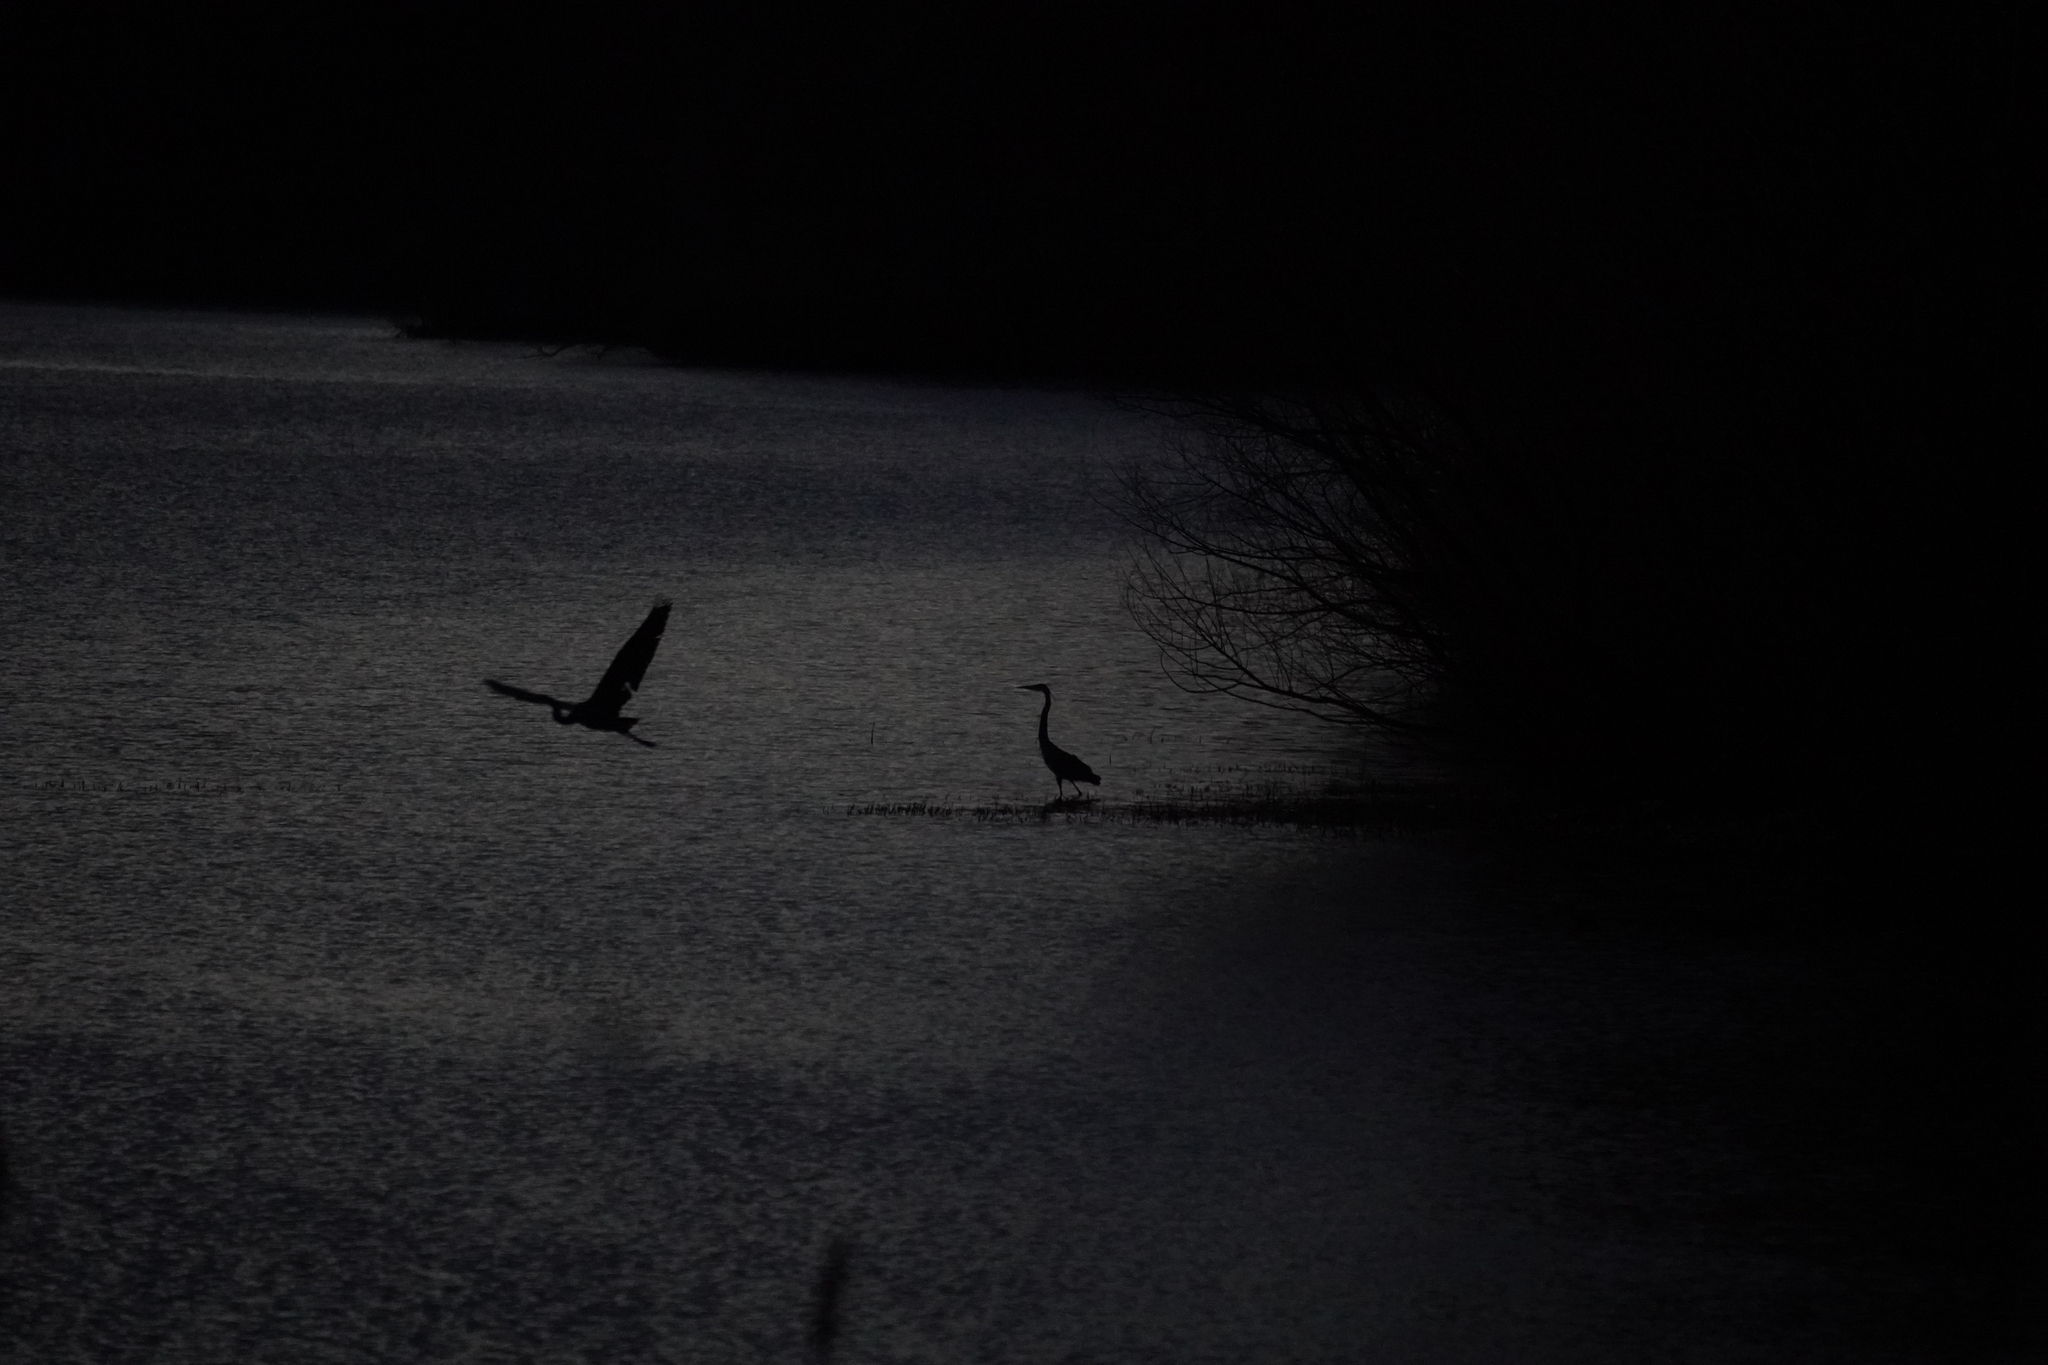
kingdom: Animalia
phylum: Chordata
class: Aves
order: Pelecaniformes
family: Ardeidae
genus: Ardea
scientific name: Ardea herodias
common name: Great blue heron
